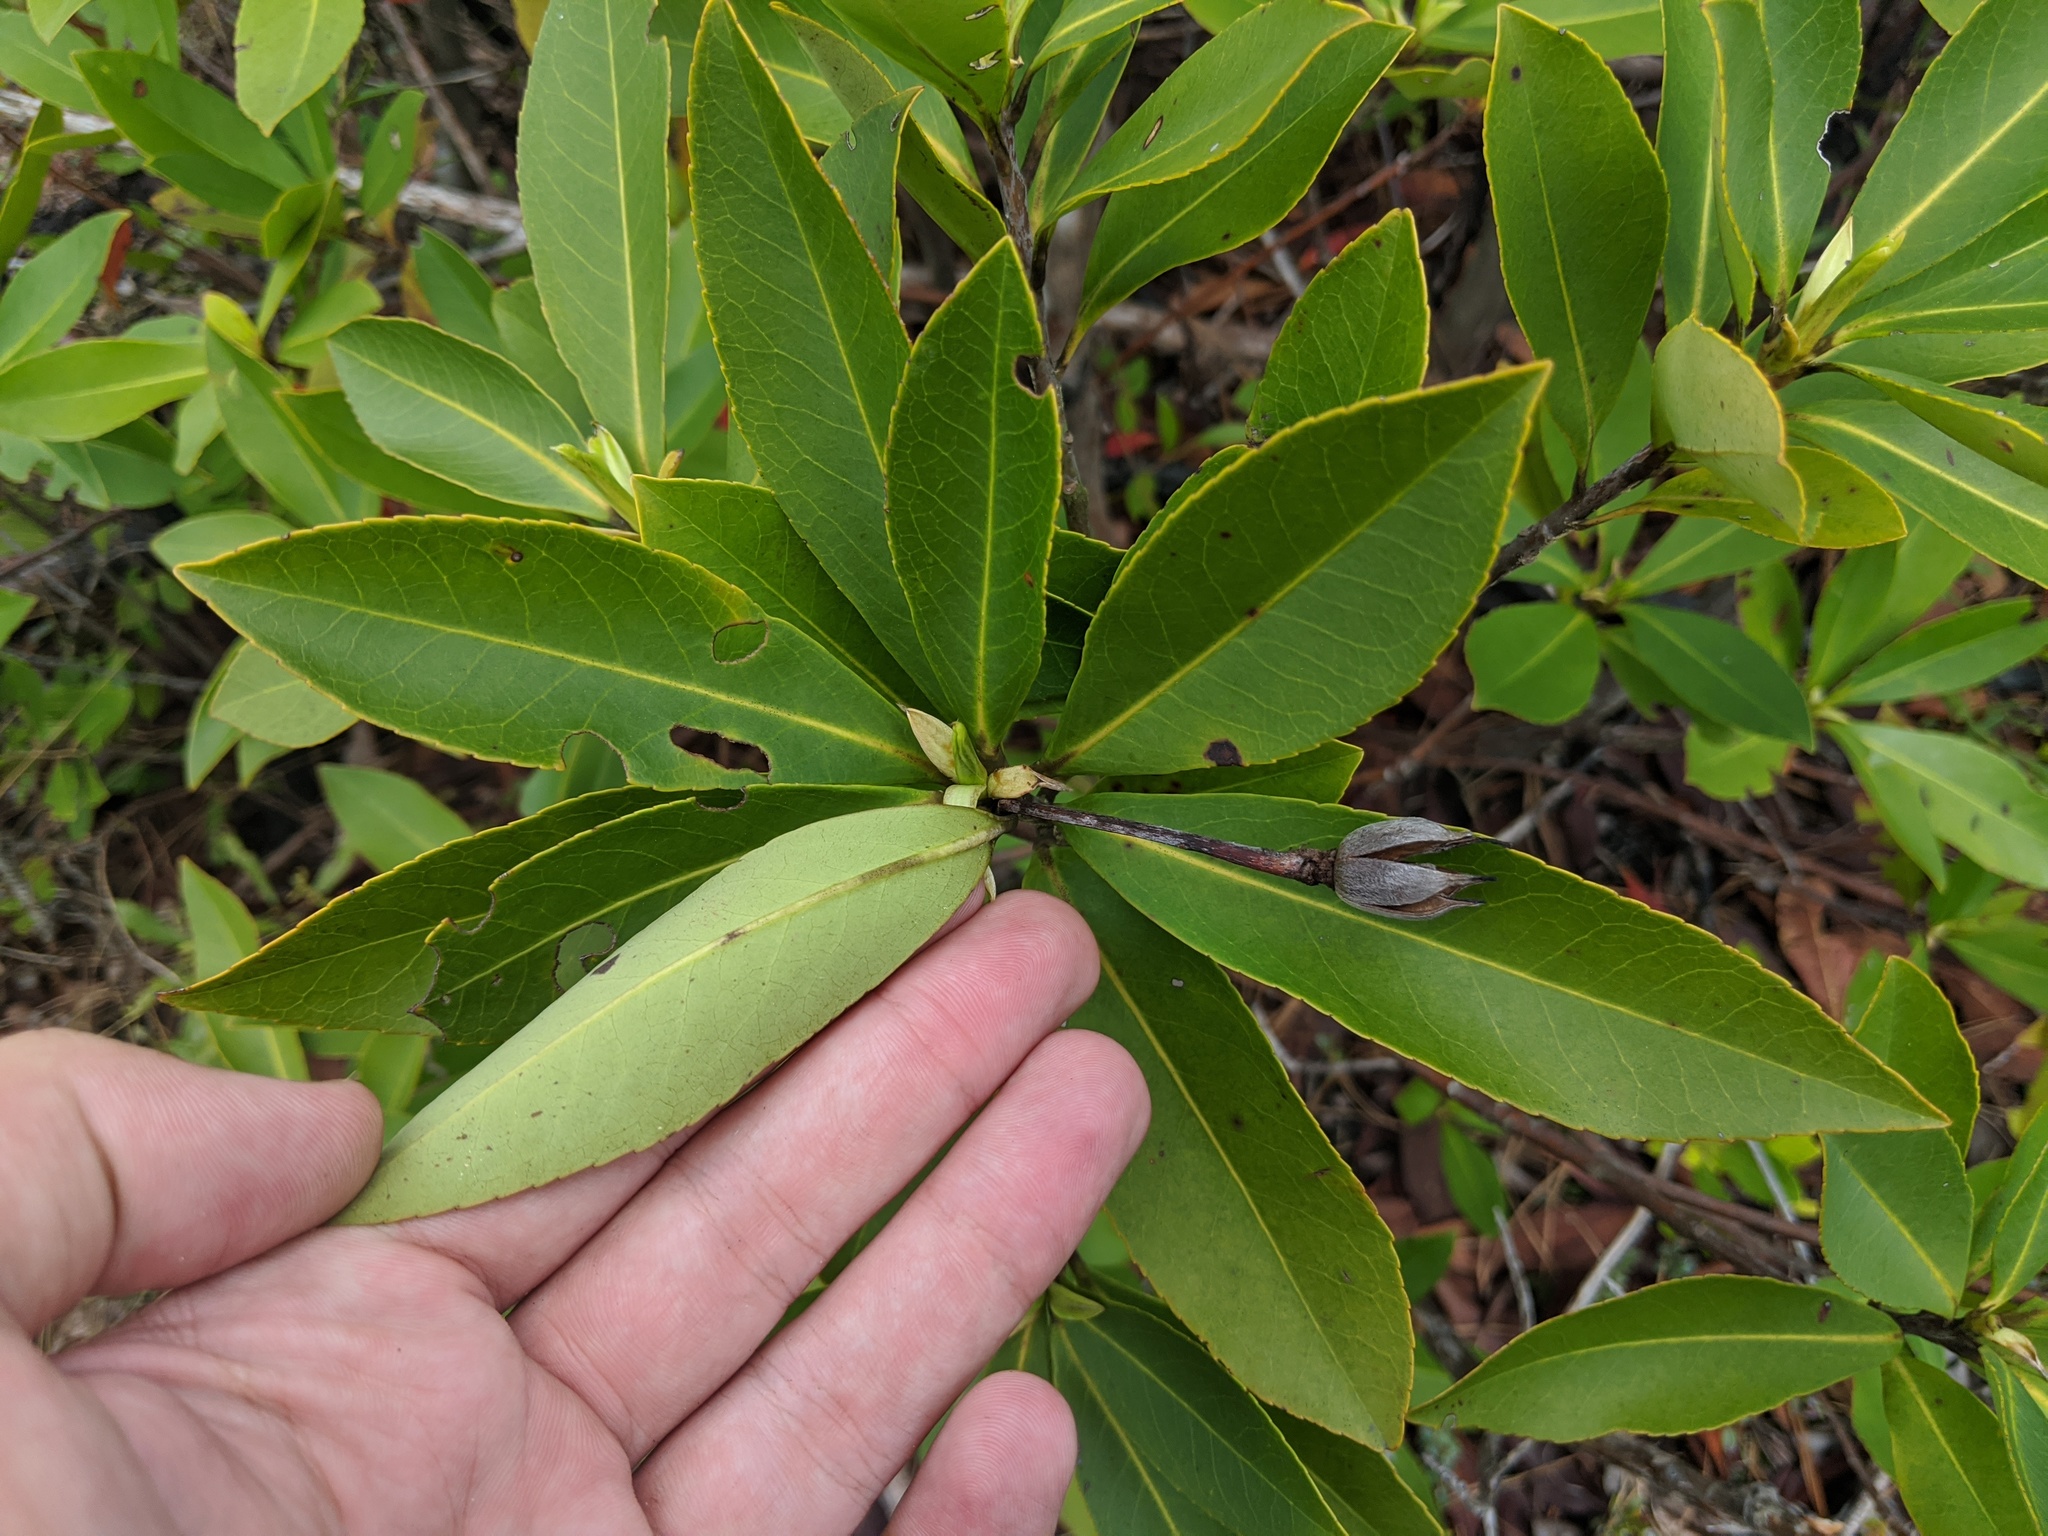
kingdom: Plantae
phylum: Tracheophyta
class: Magnoliopsida
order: Ericales
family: Theaceae
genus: Gordonia
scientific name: Gordonia lasianthus
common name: Loblolly bay
